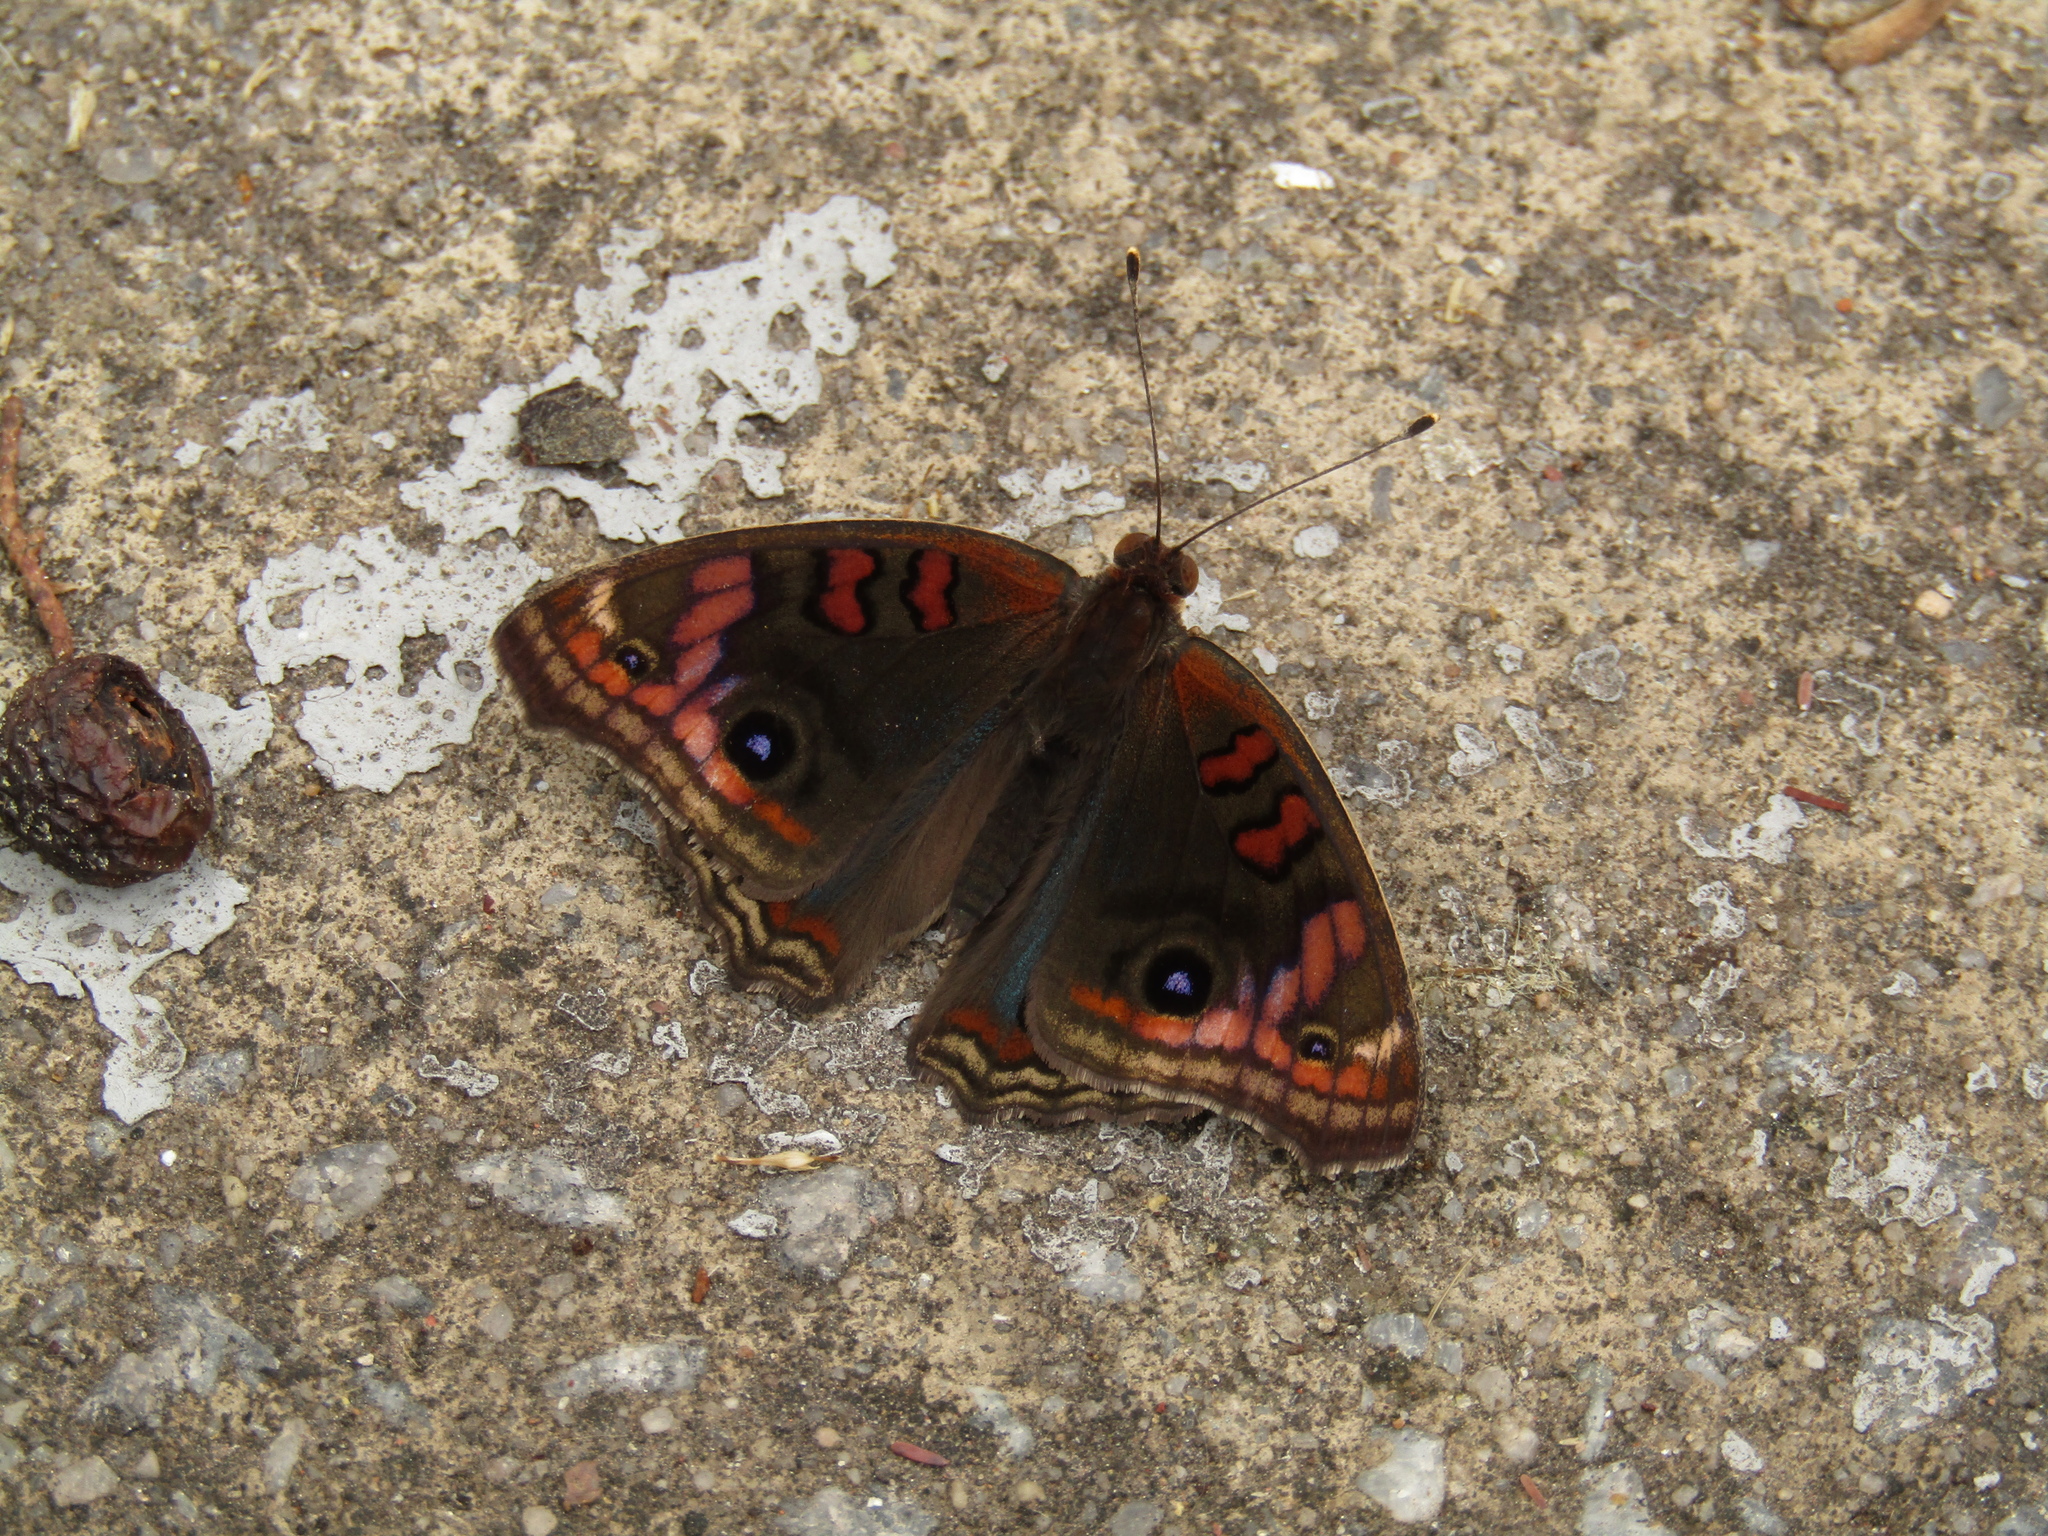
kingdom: Animalia
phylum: Arthropoda
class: Insecta
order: Lepidoptera
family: Nymphalidae
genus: Junonia
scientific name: Junonia lavinia
